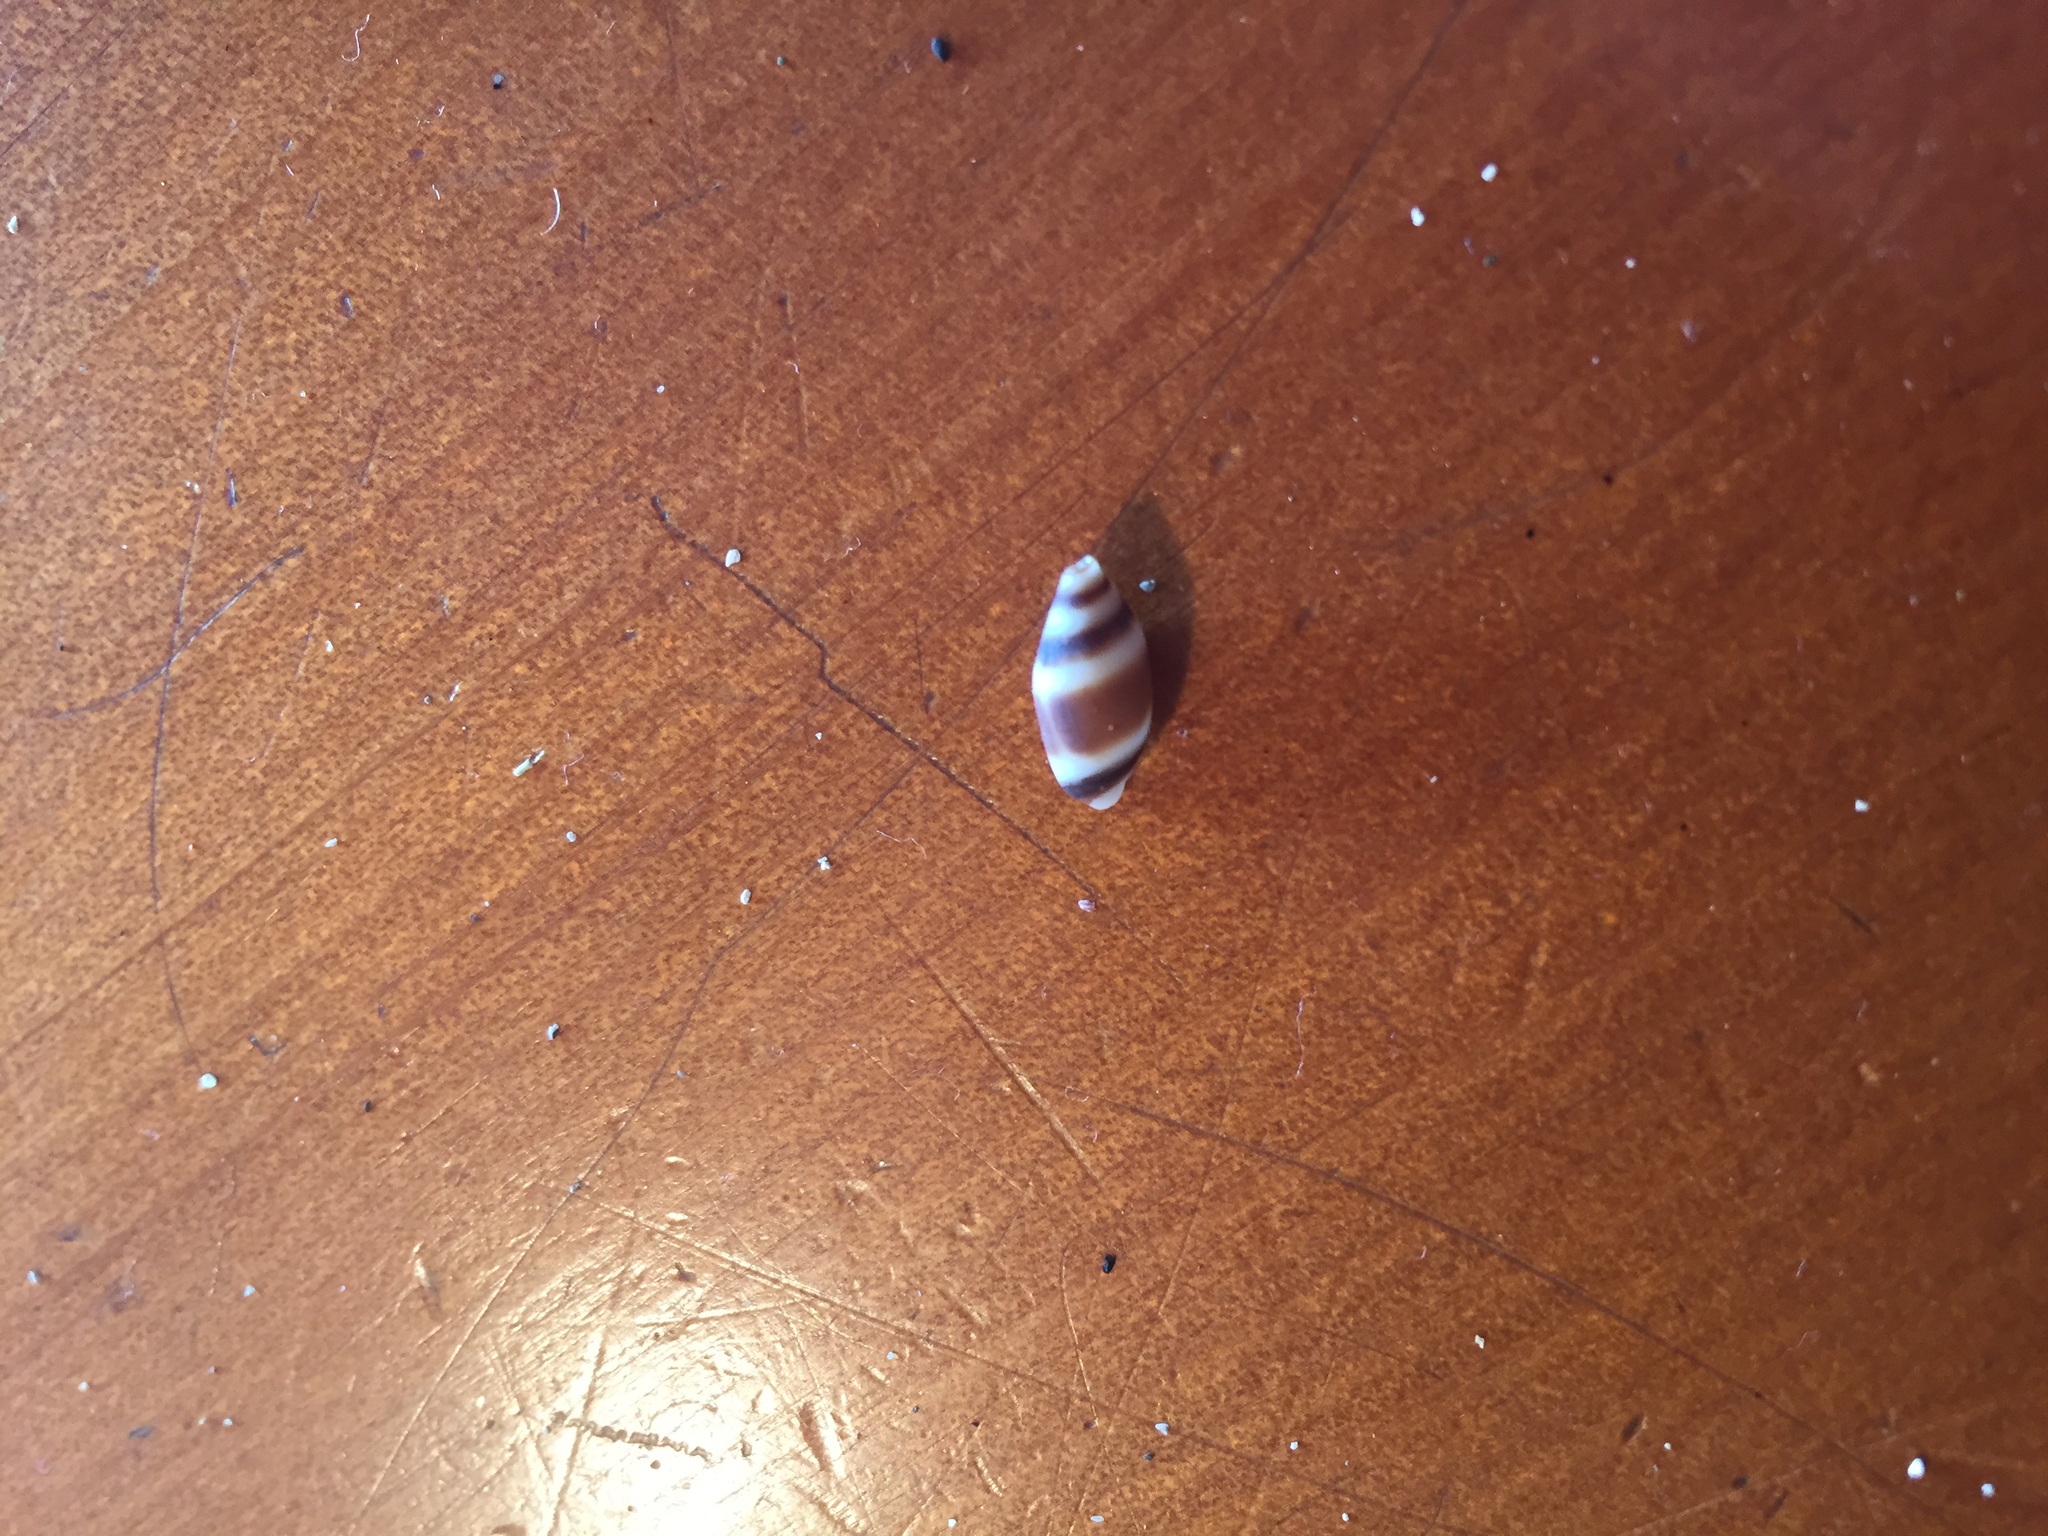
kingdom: Animalia
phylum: Mollusca
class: Gastropoda
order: Neogastropoda
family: Ancillariidae
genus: Amalda
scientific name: Amalda northlandica
